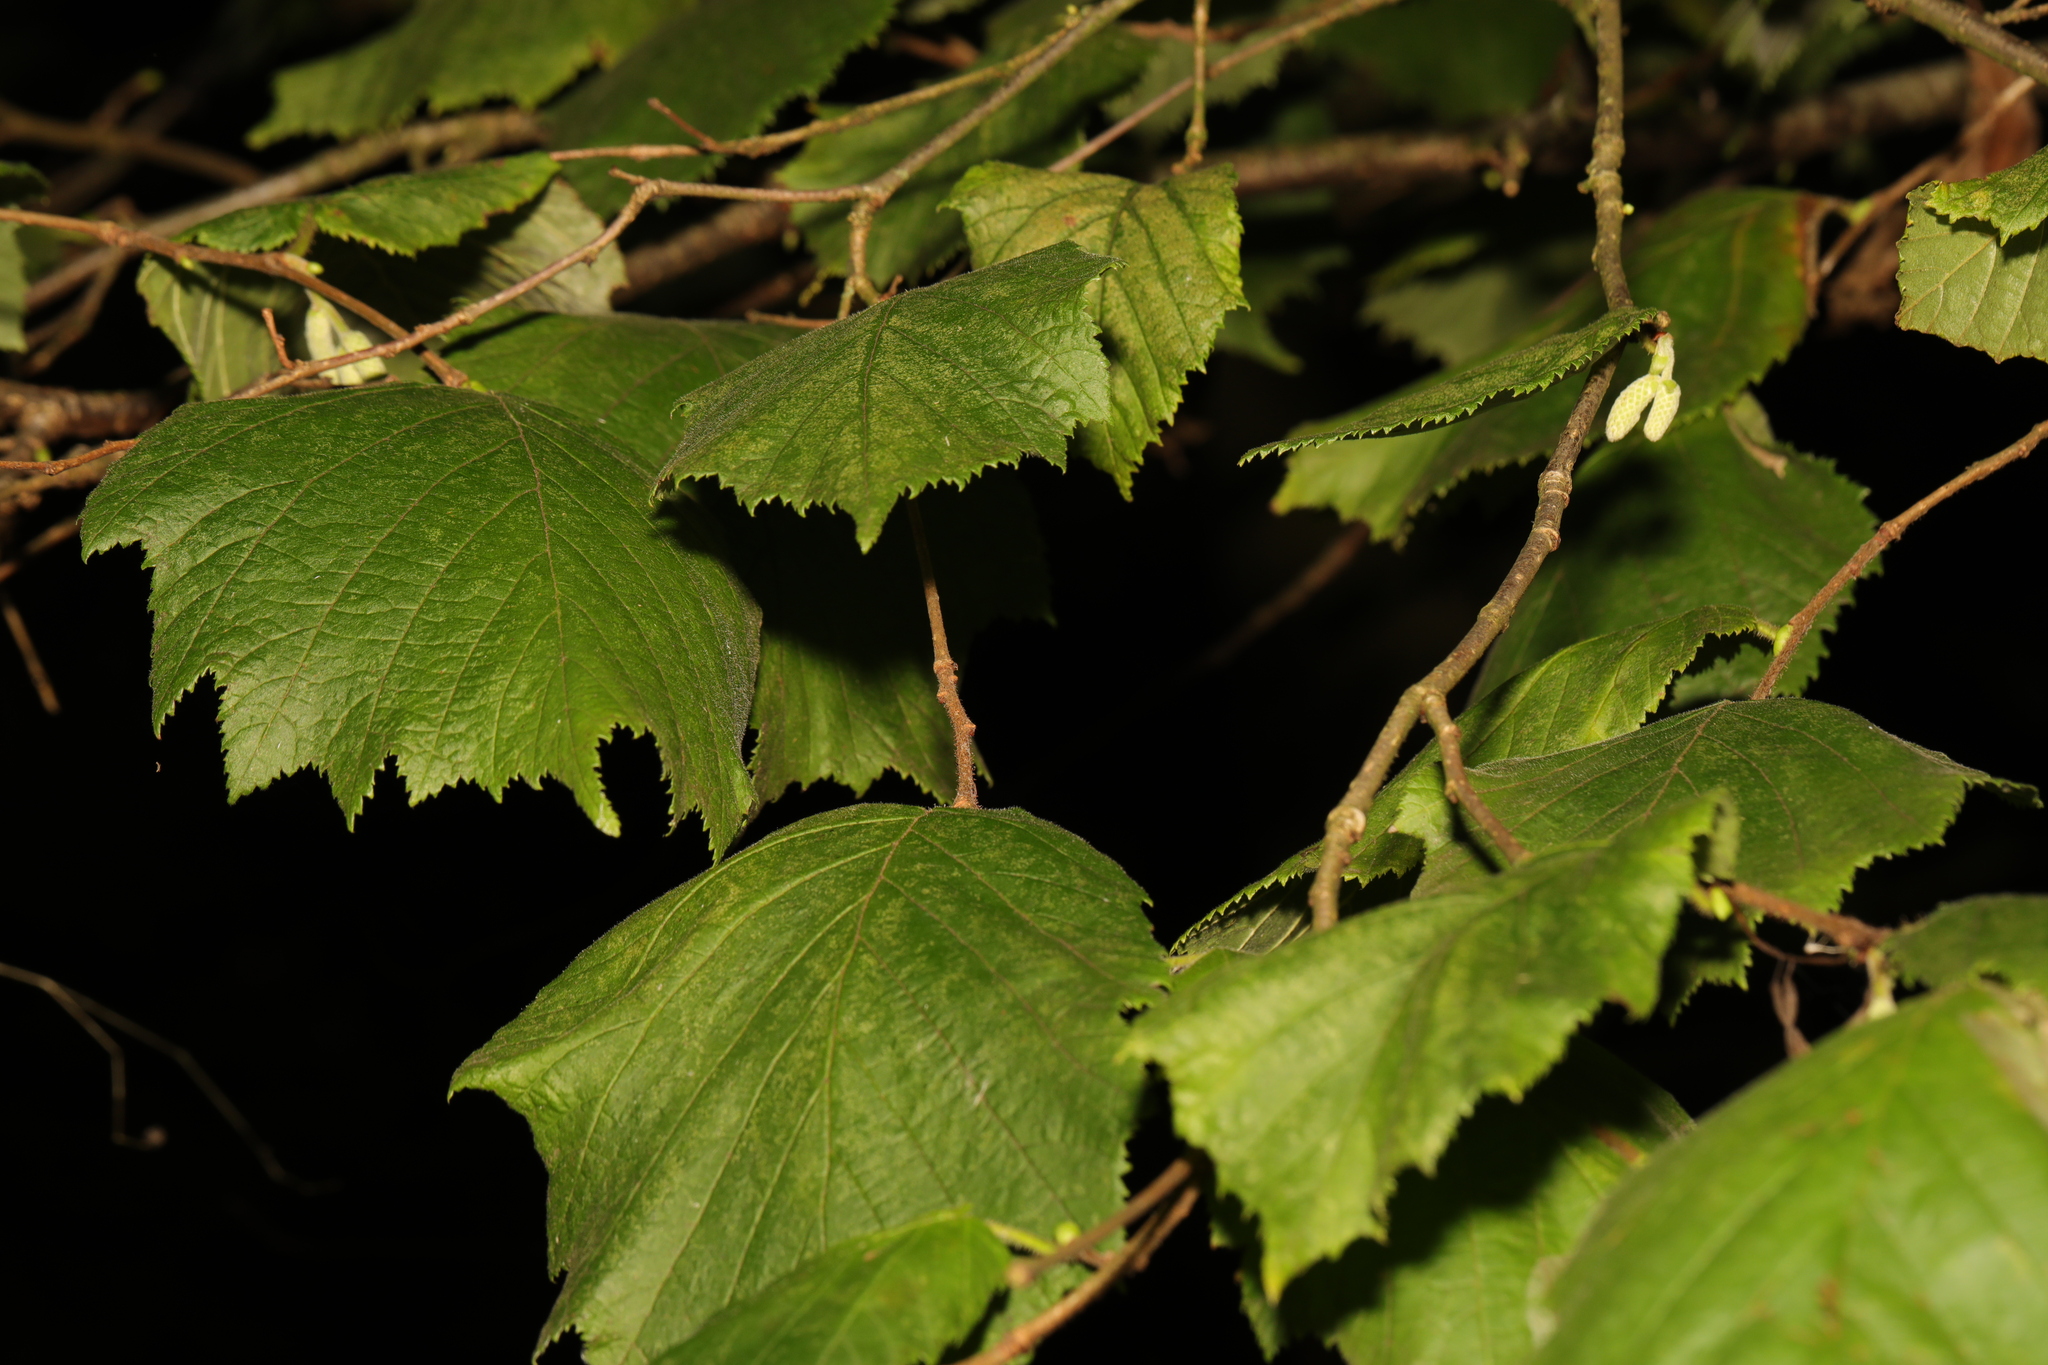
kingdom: Plantae
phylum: Tracheophyta
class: Magnoliopsida
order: Fagales
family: Betulaceae
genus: Corylus
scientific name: Corylus avellana
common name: European hazel
